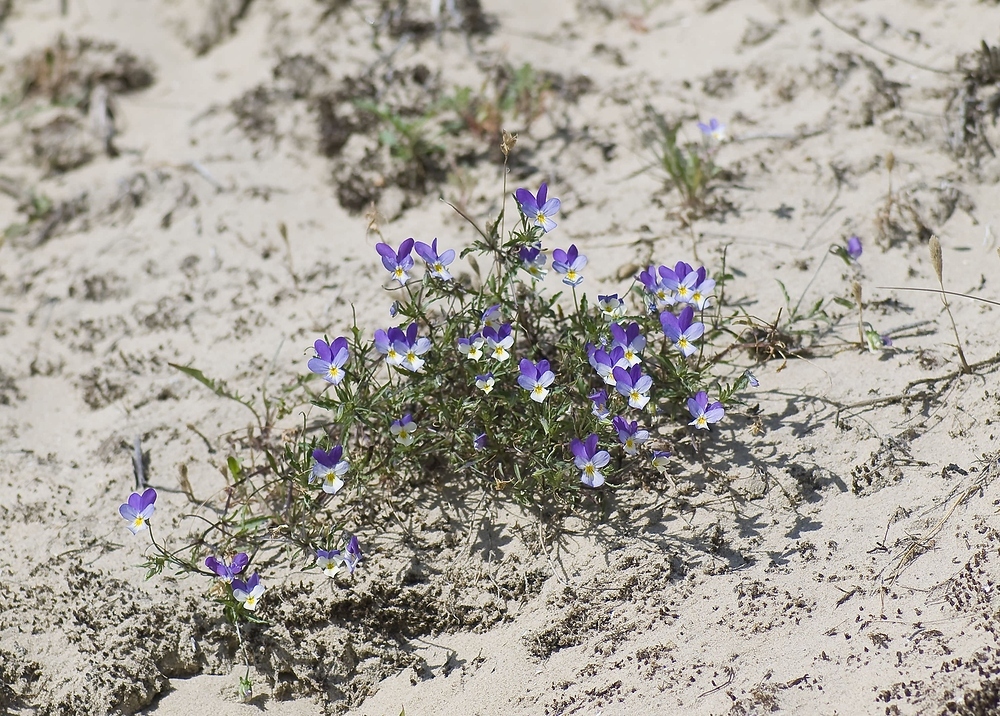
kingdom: Plantae
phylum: Tracheophyta
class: Magnoliopsida
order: Malpighiales
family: Violaceae
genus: Viola
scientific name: Viola tricolor
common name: Pansy
